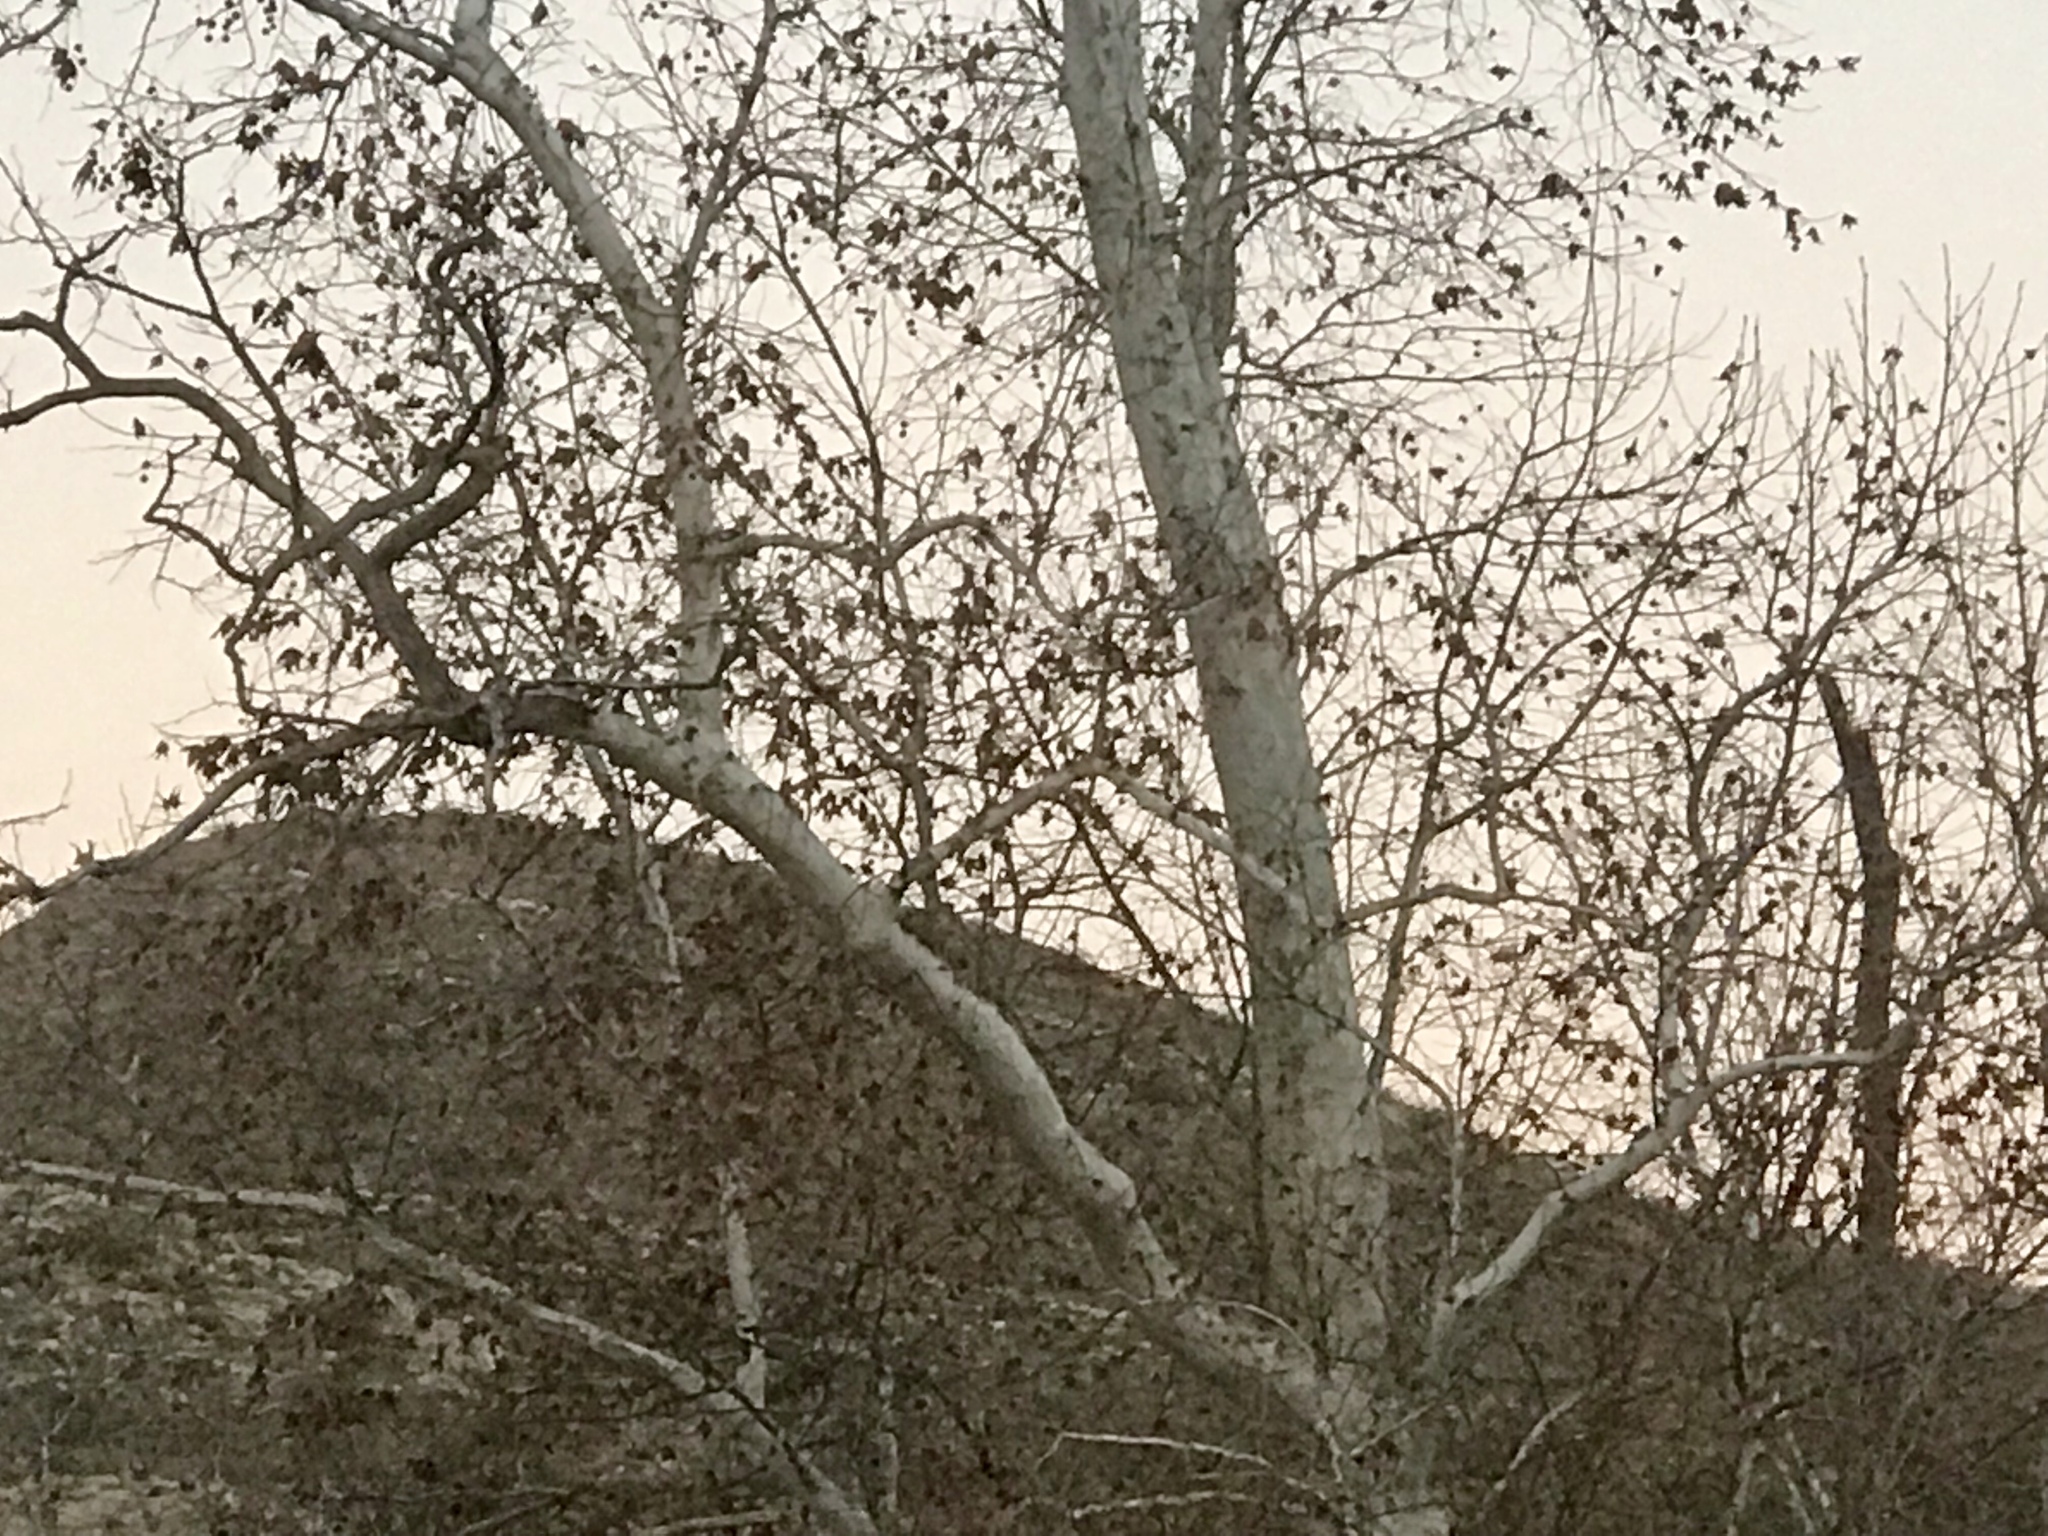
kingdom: Plantae
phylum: Tracheophyta
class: Magnoliopsida
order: Proteales
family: Platanaceae
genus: Platanus
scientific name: Platanus wrightii
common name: Arizona sycamore
